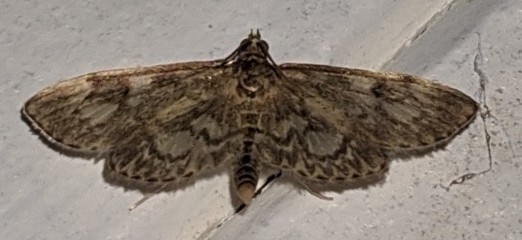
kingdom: Animalia
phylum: Arthropoda
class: Insecta
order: Lepidoptera
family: Crambidae
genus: Anania
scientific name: Anania tertialis
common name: Crowned phylctaenia moth
